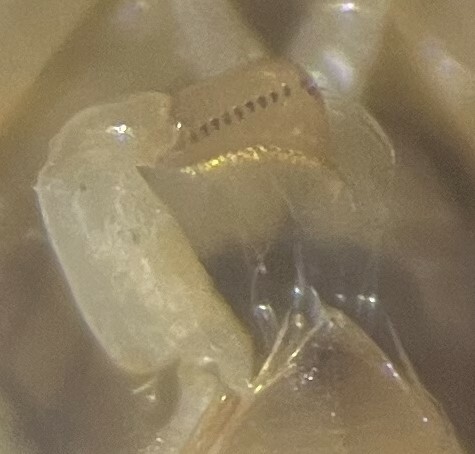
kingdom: Animalia
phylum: Arthropoda
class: Insecta
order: Hemiptera
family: Corixidae
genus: Sigara
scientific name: Sigara paludata
